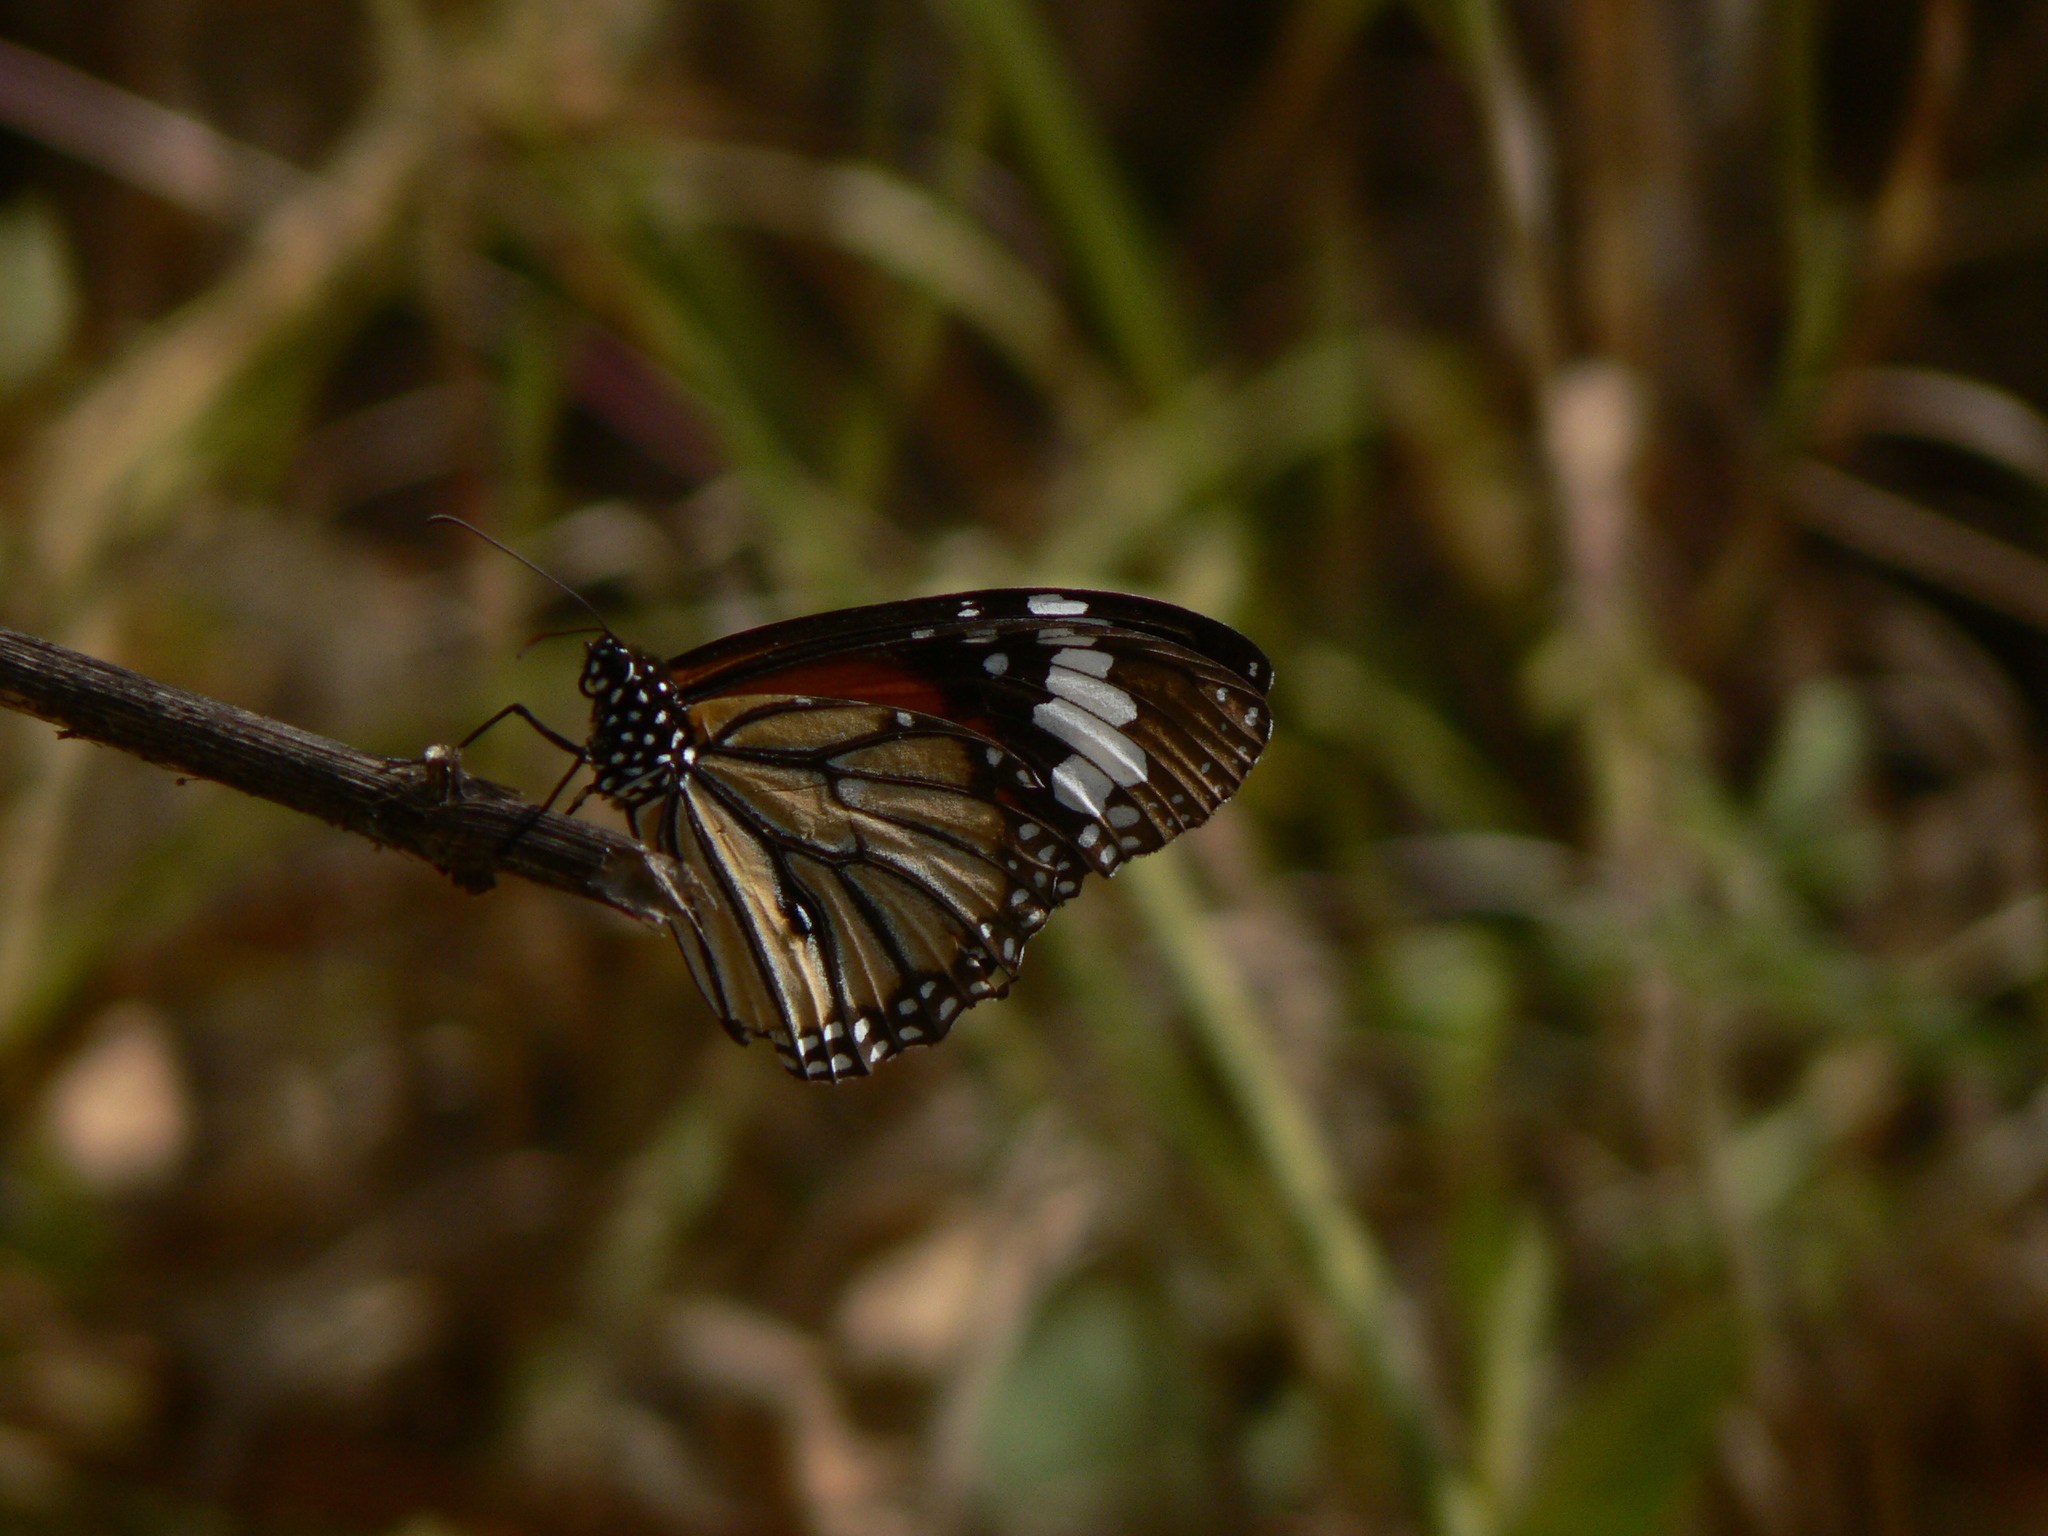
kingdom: Animalia
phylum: Arthropoda
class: Insecta
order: Lepidoptera
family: Nymphalidae
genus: Danaus
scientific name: Danaus genutia
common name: Common tiger butterfly
